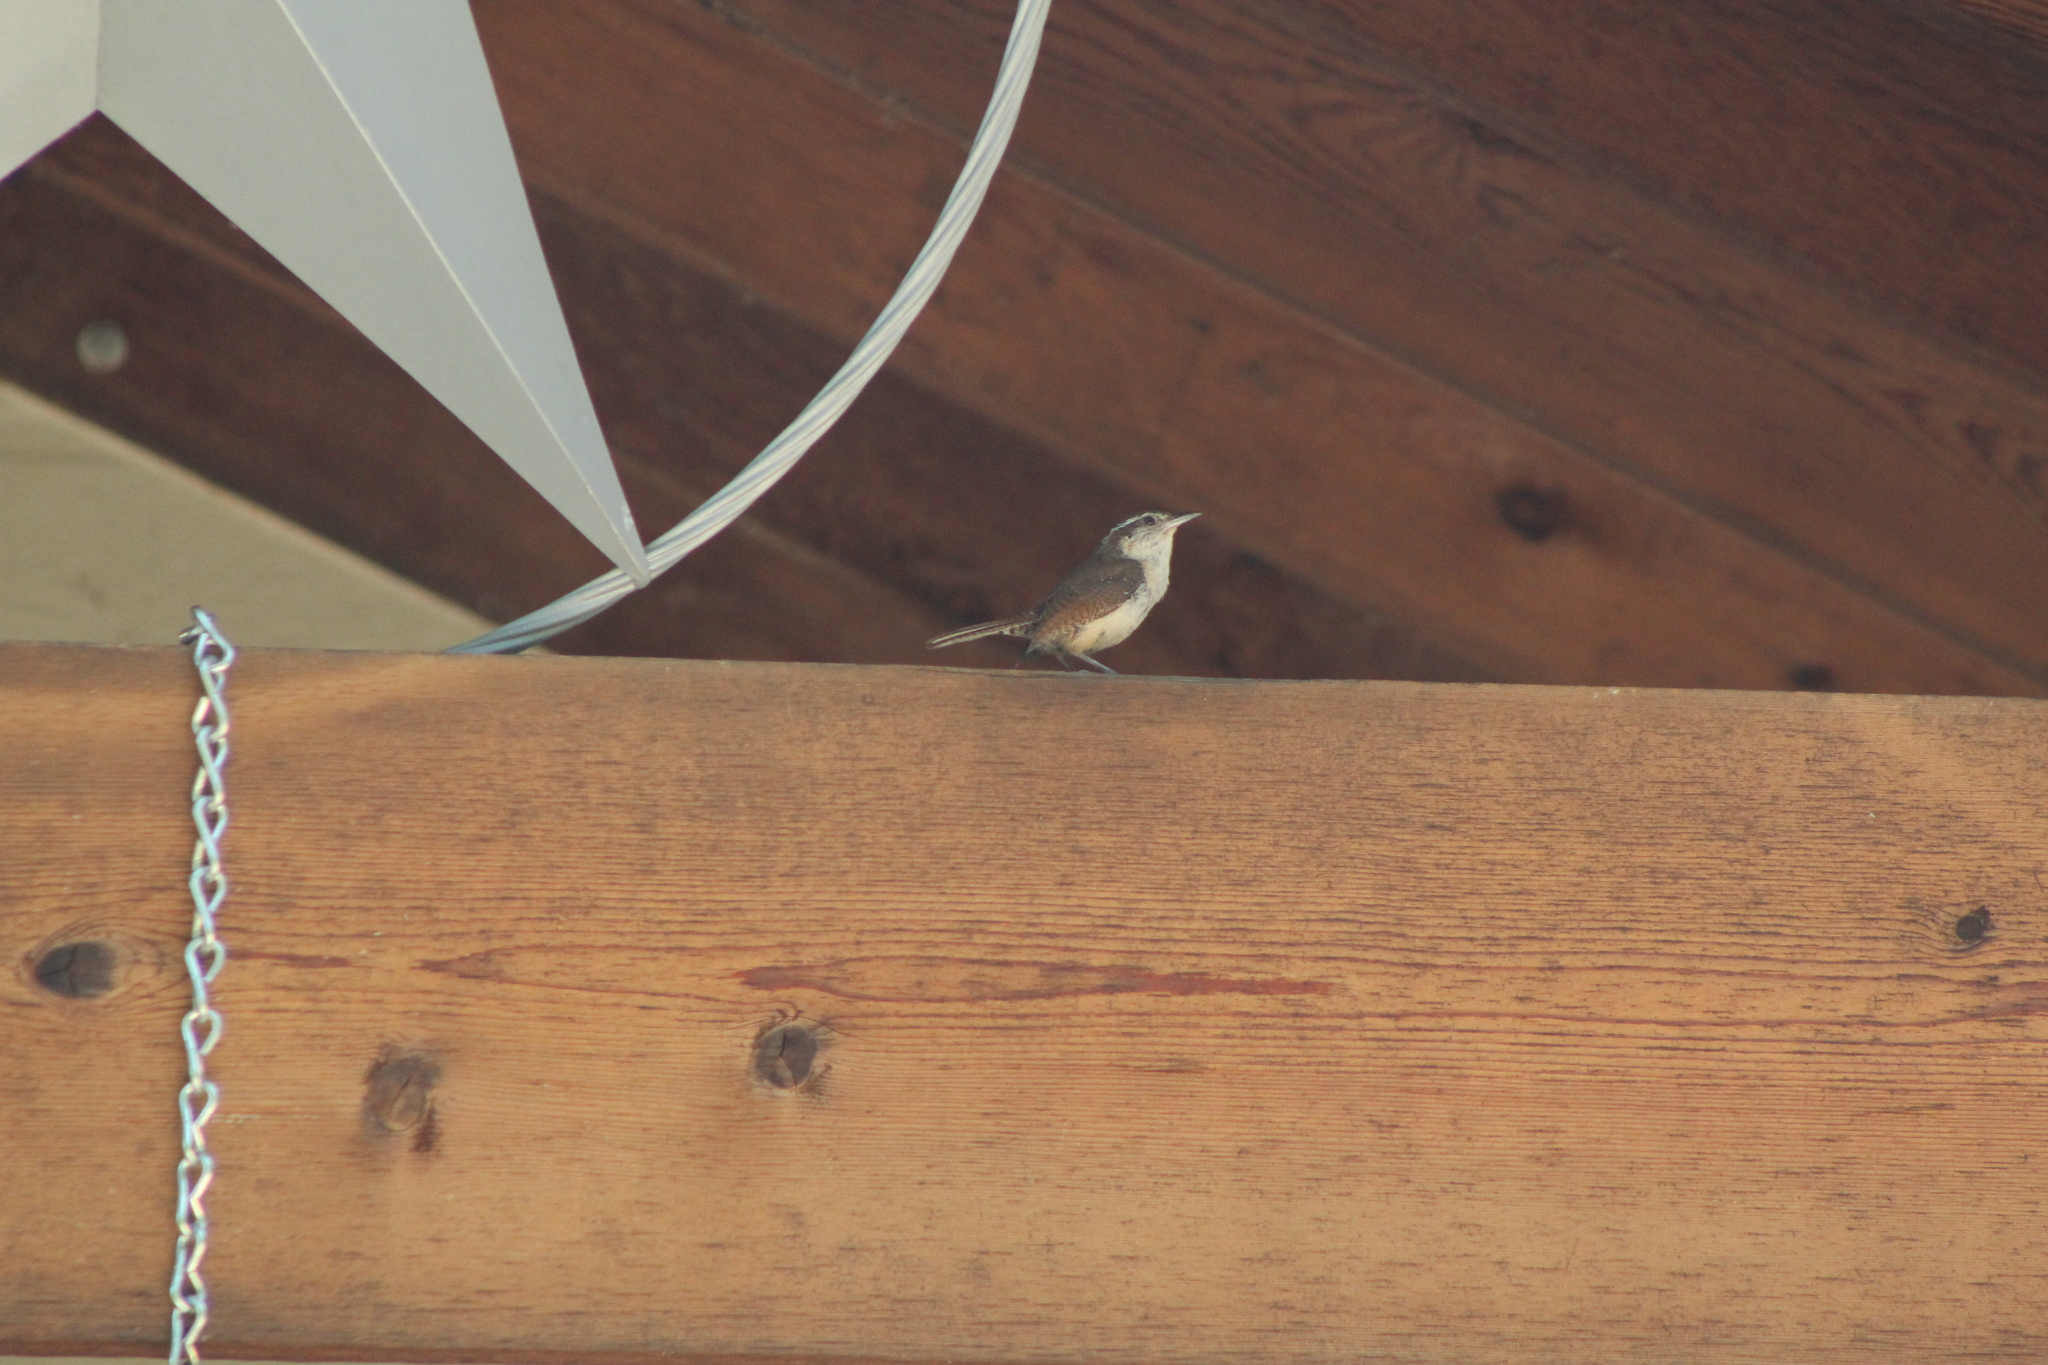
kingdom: Animalia
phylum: Chordata
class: Aves
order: Passeriformes
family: Troglodytidae
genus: Thryomanes
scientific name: Thryomanes bewickii
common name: Bewick's wren
